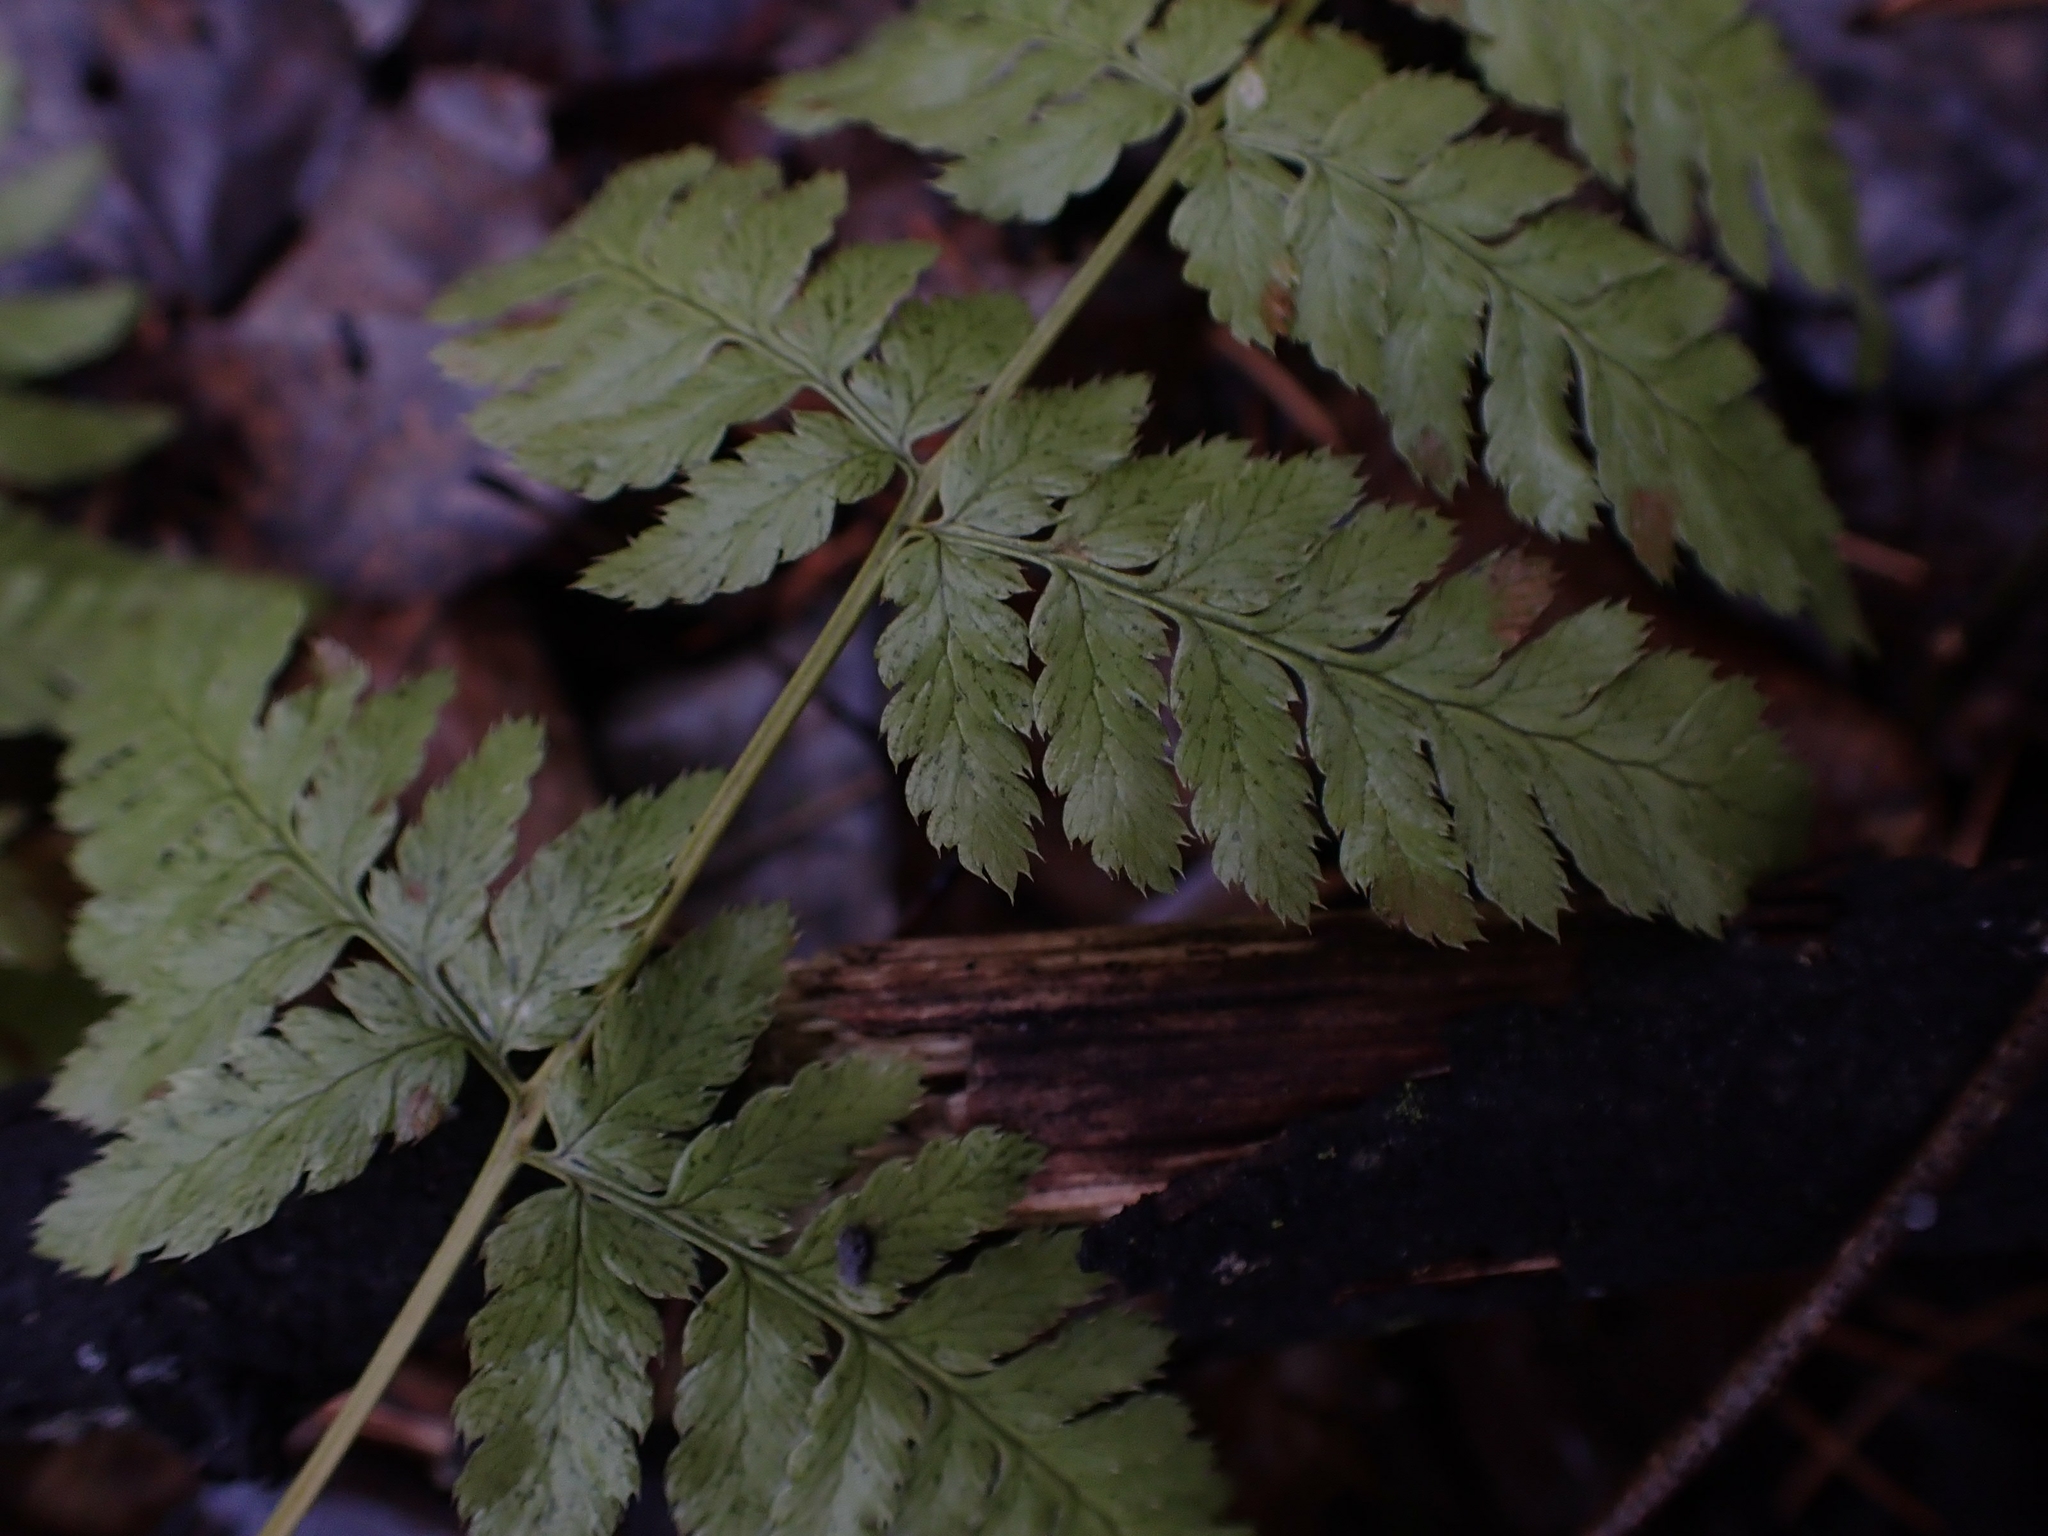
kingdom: Plantae
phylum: Tracheophyta
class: Polypodiopsida
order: Polypodiales
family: Dryopteridaceae
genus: Dryopteris
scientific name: Dryopteris carthusiana
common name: Narrow buckler-fern
